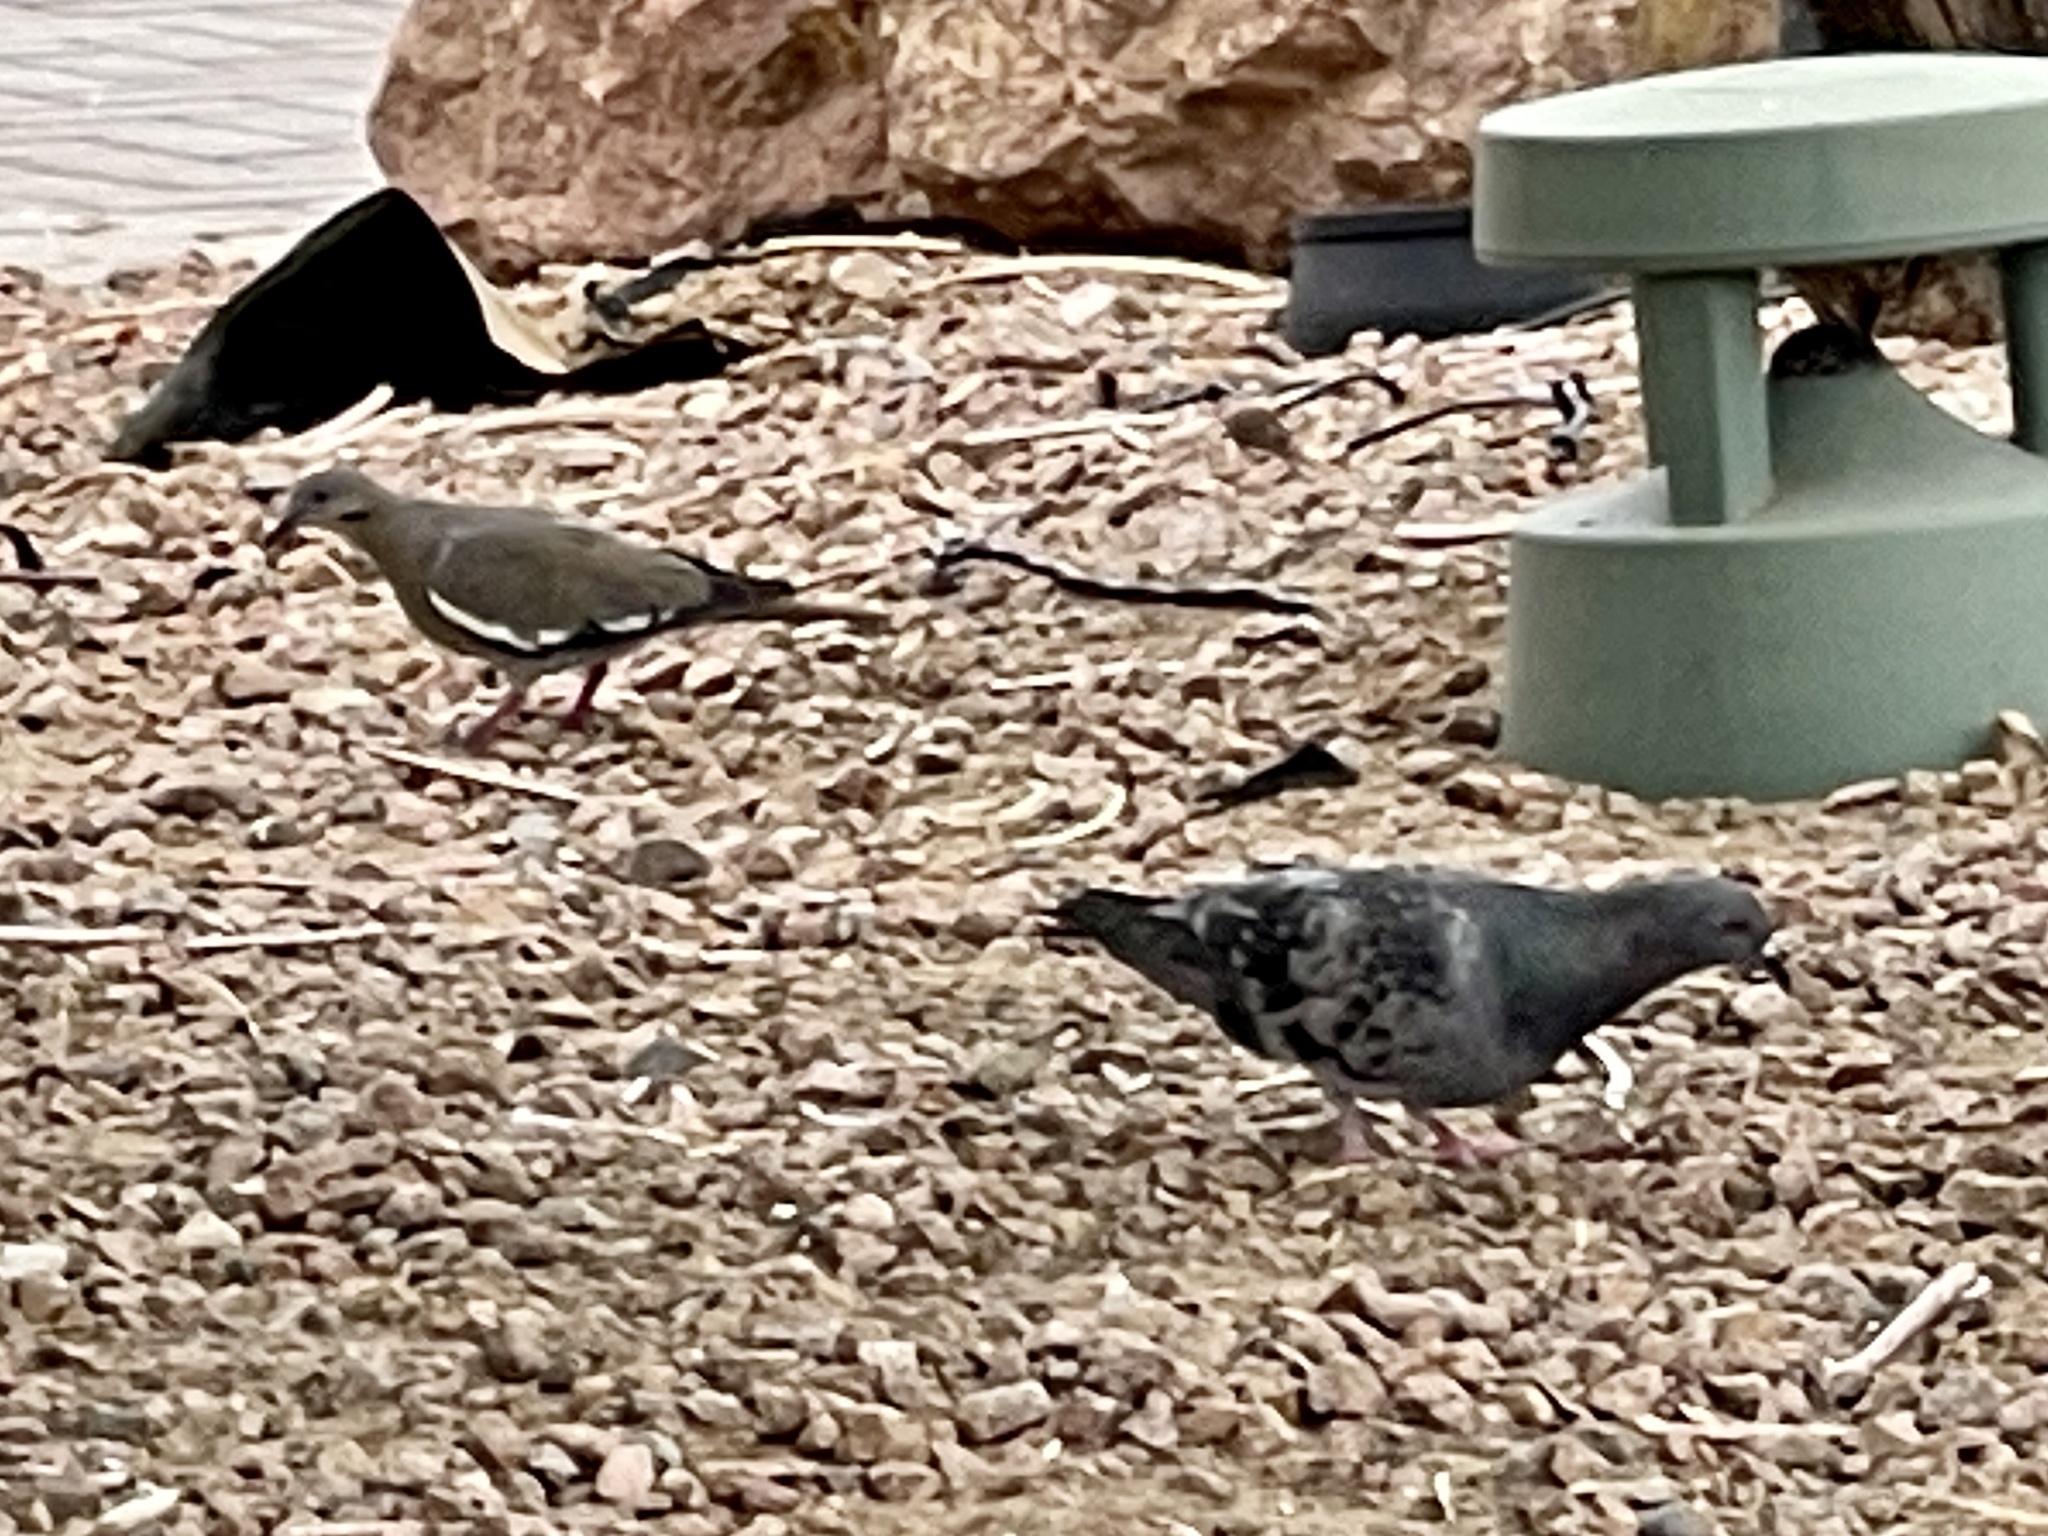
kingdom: Animalia
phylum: Chordata
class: Aves
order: Columbiformes
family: Columbidae
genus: Columba
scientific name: Columba livia
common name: Rock pigeon
